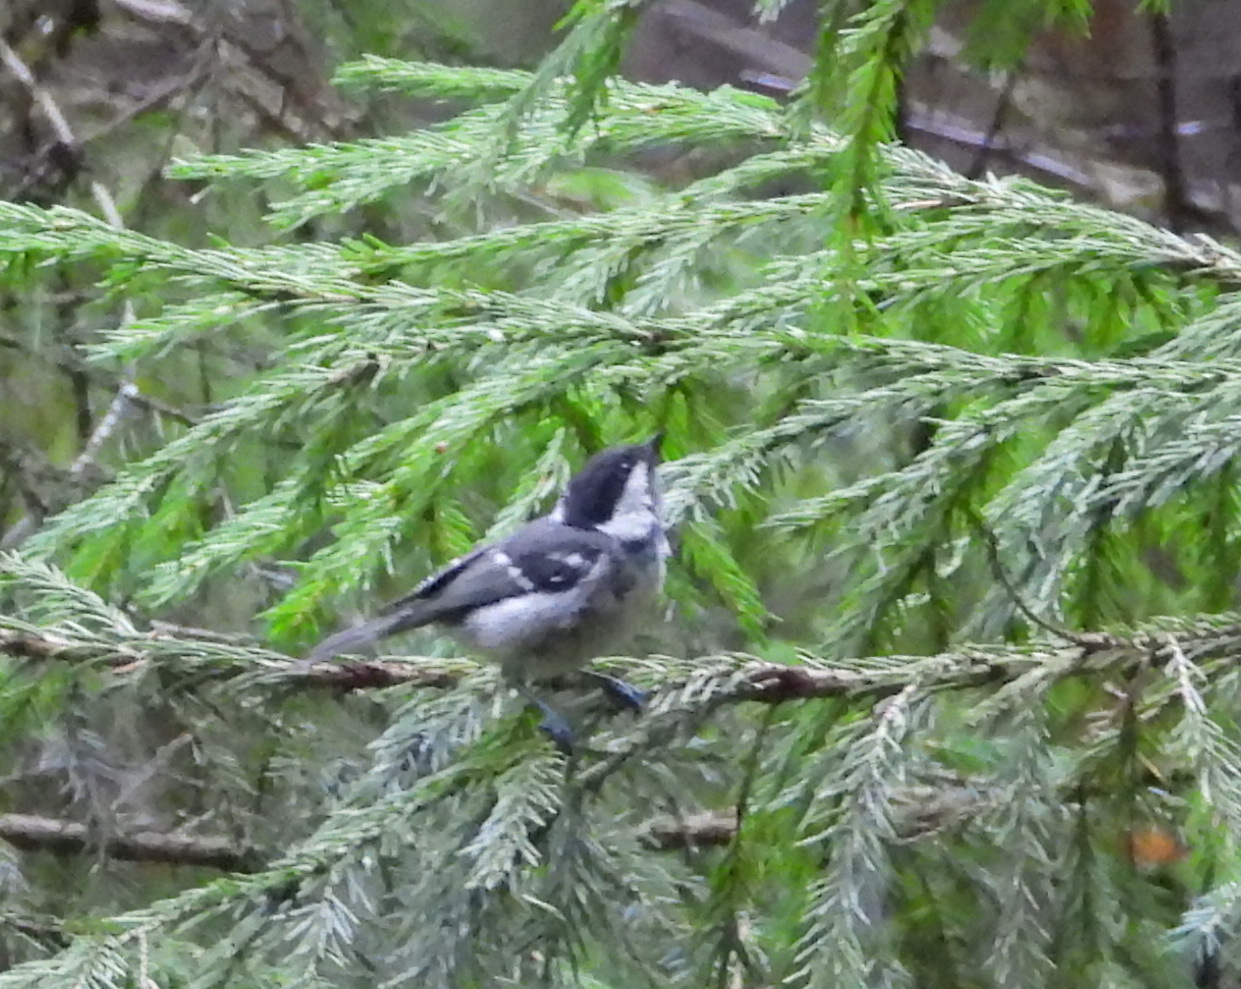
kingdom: Animalia
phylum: Chordata
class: Aves
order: Passeriformes
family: Paridae
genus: Periparus
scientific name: Periparus ater
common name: Coal tit
